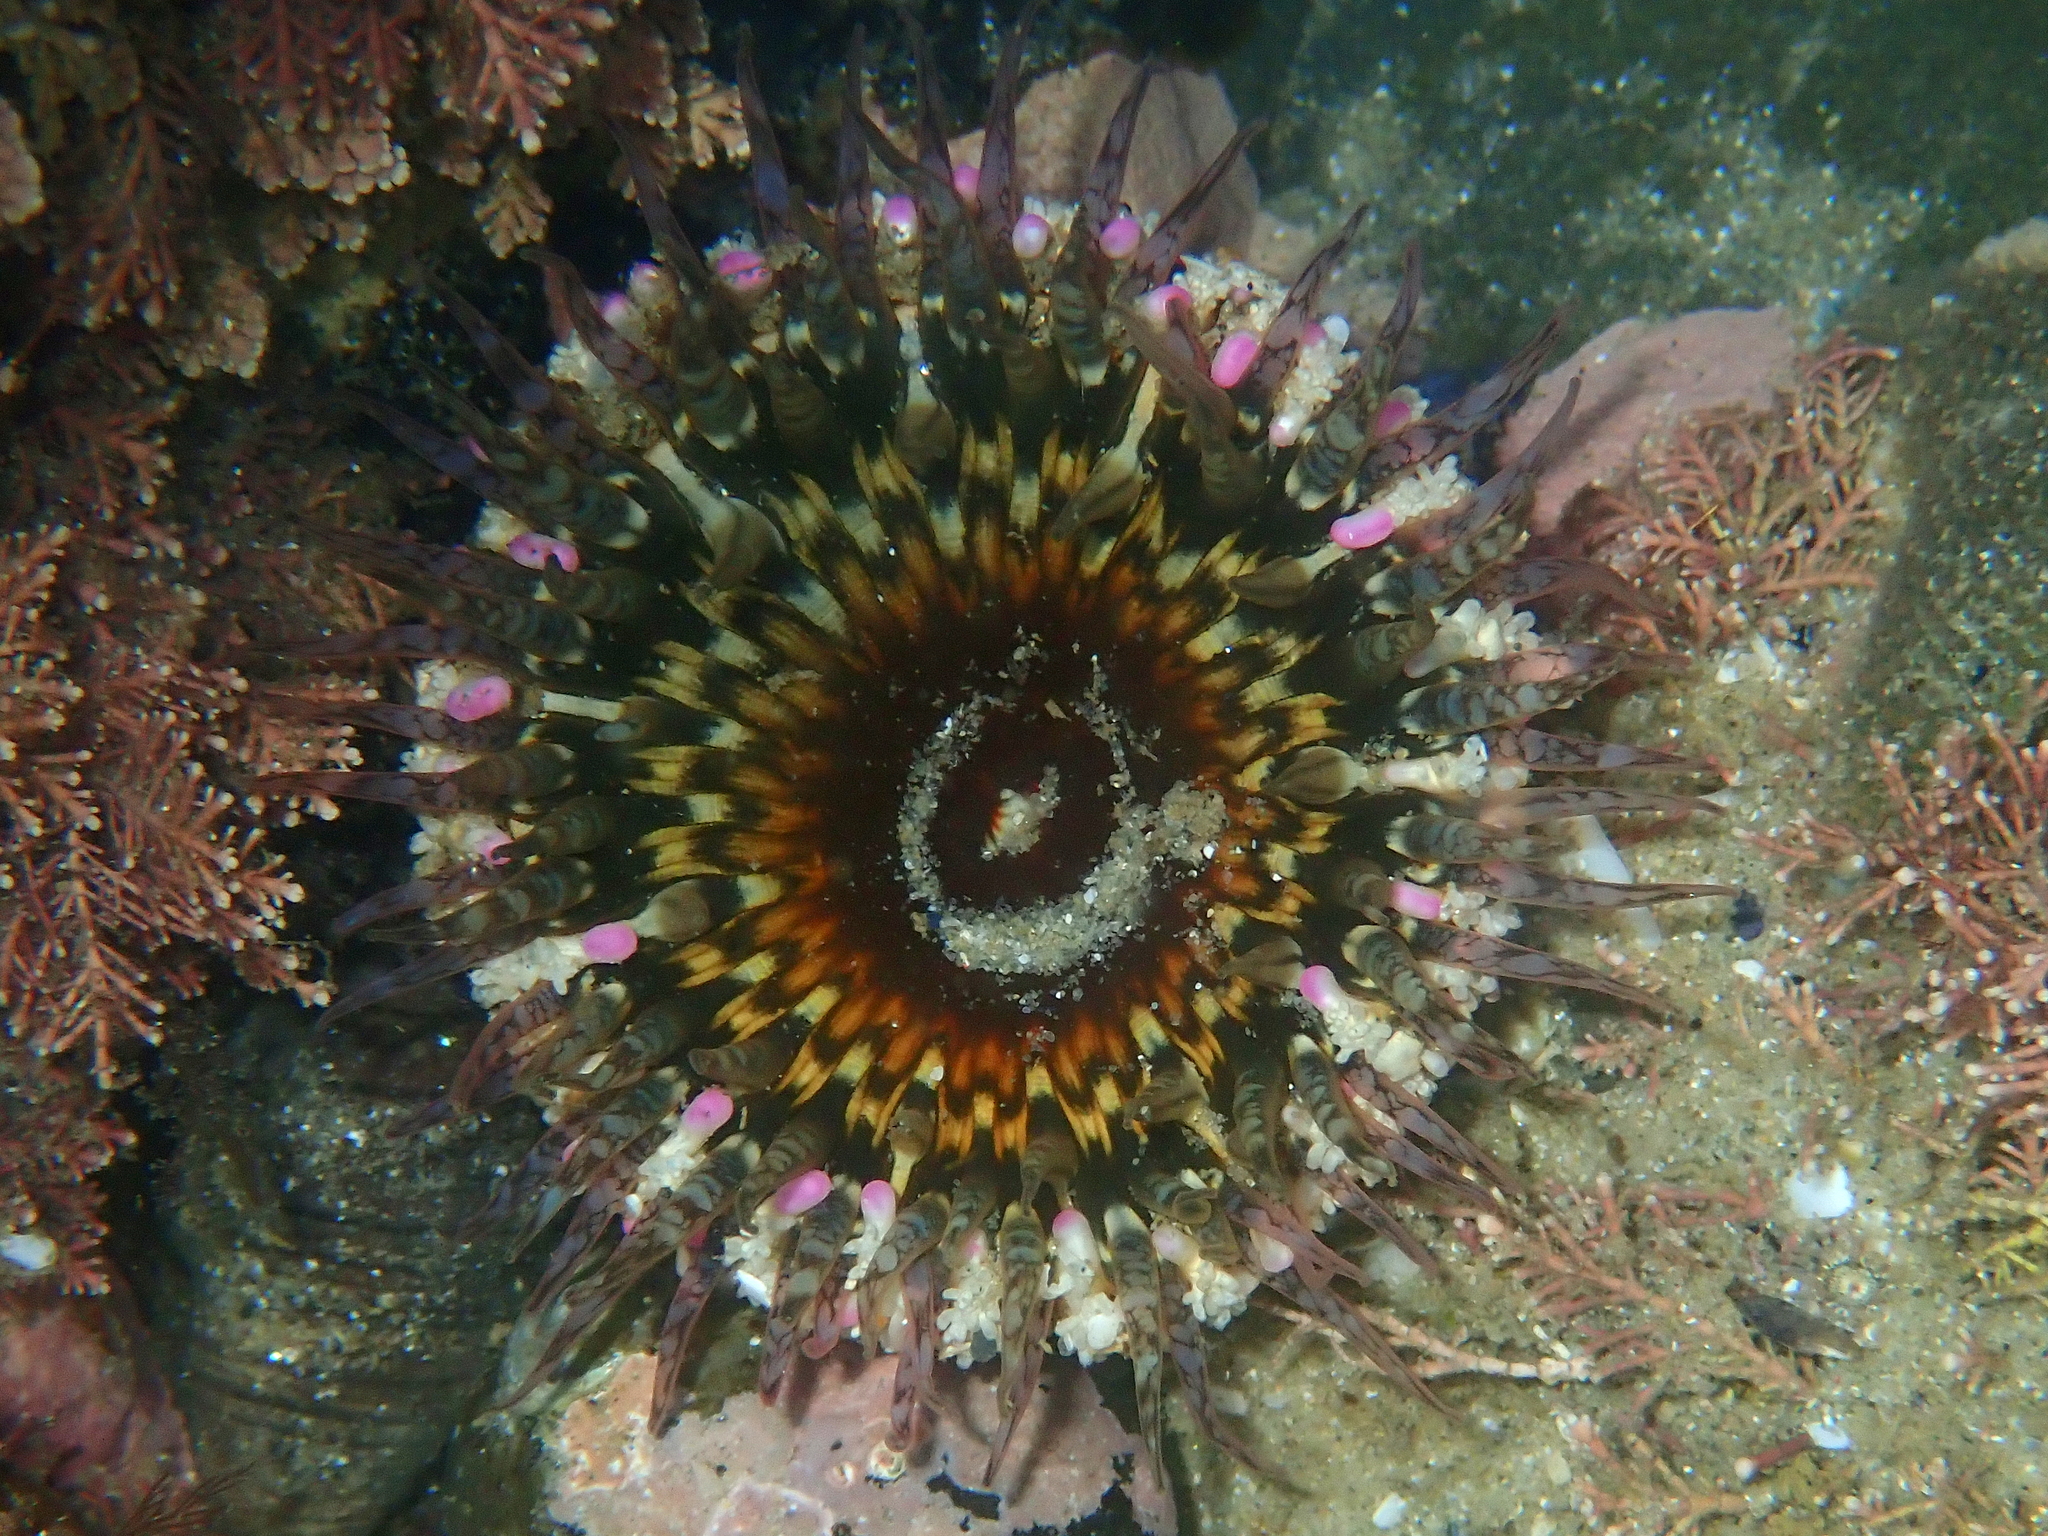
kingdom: Animalia
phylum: Cnidaria
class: Anthozoa
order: Actiniaria
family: Actiniidae
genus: Oulactis
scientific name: Oulactis muscosa
